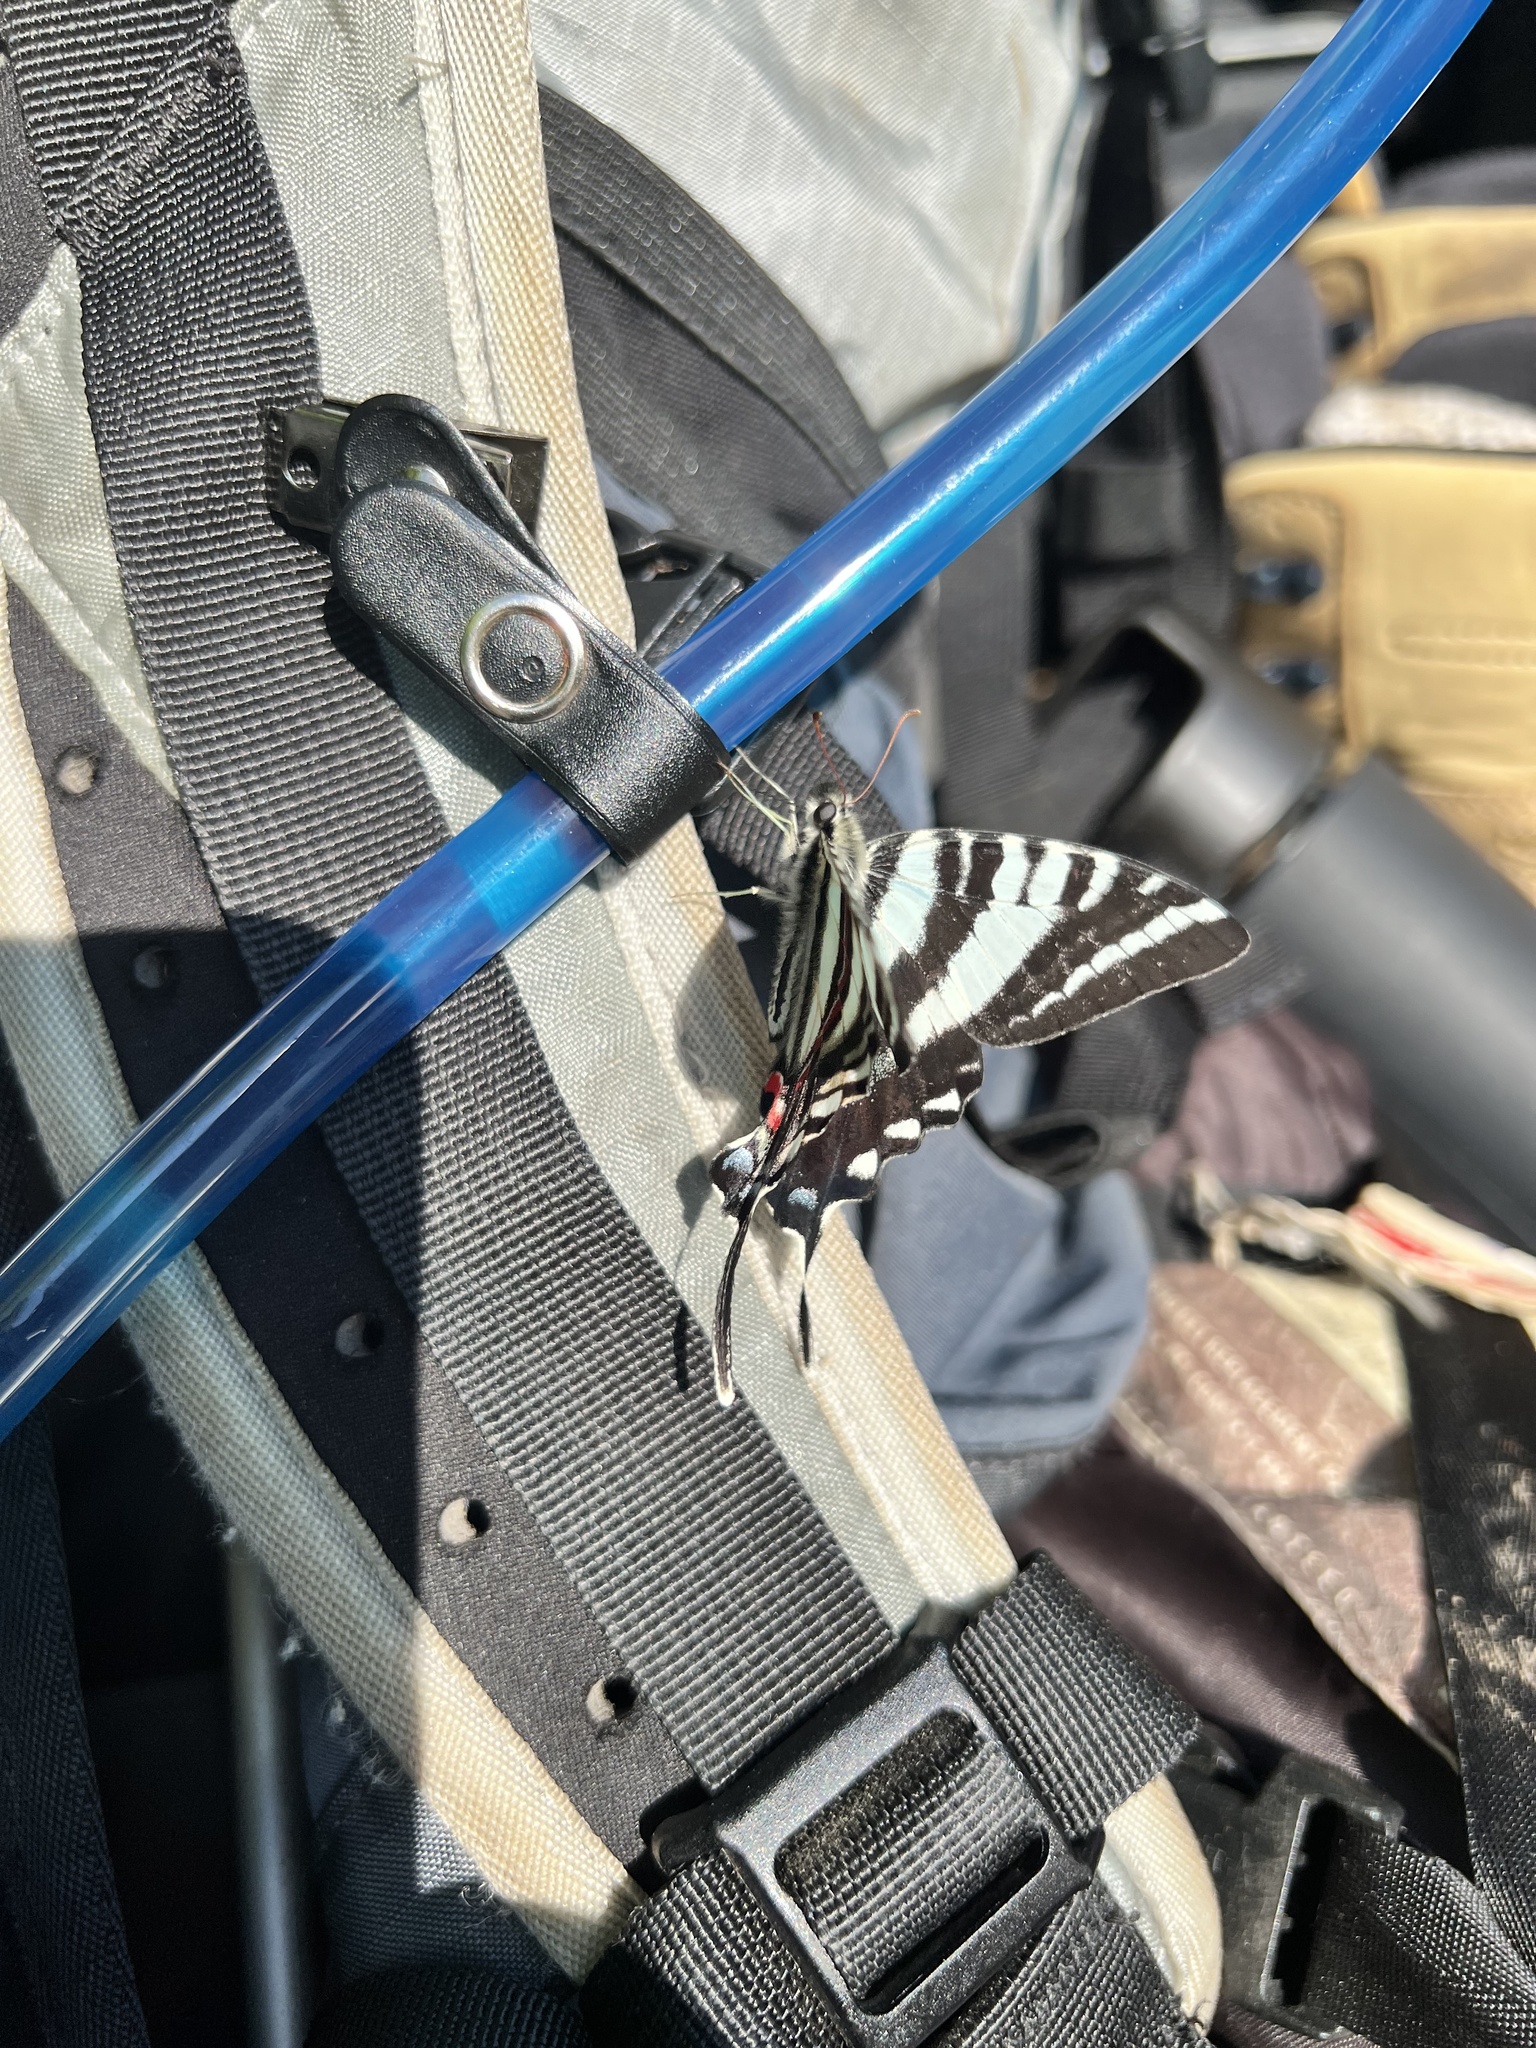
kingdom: Animalia
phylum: Arthropoda
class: Insecta
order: Lepidoptera
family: Papilionidae
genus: Protographium
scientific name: Protographium marcellus
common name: Zebra swallowtail
